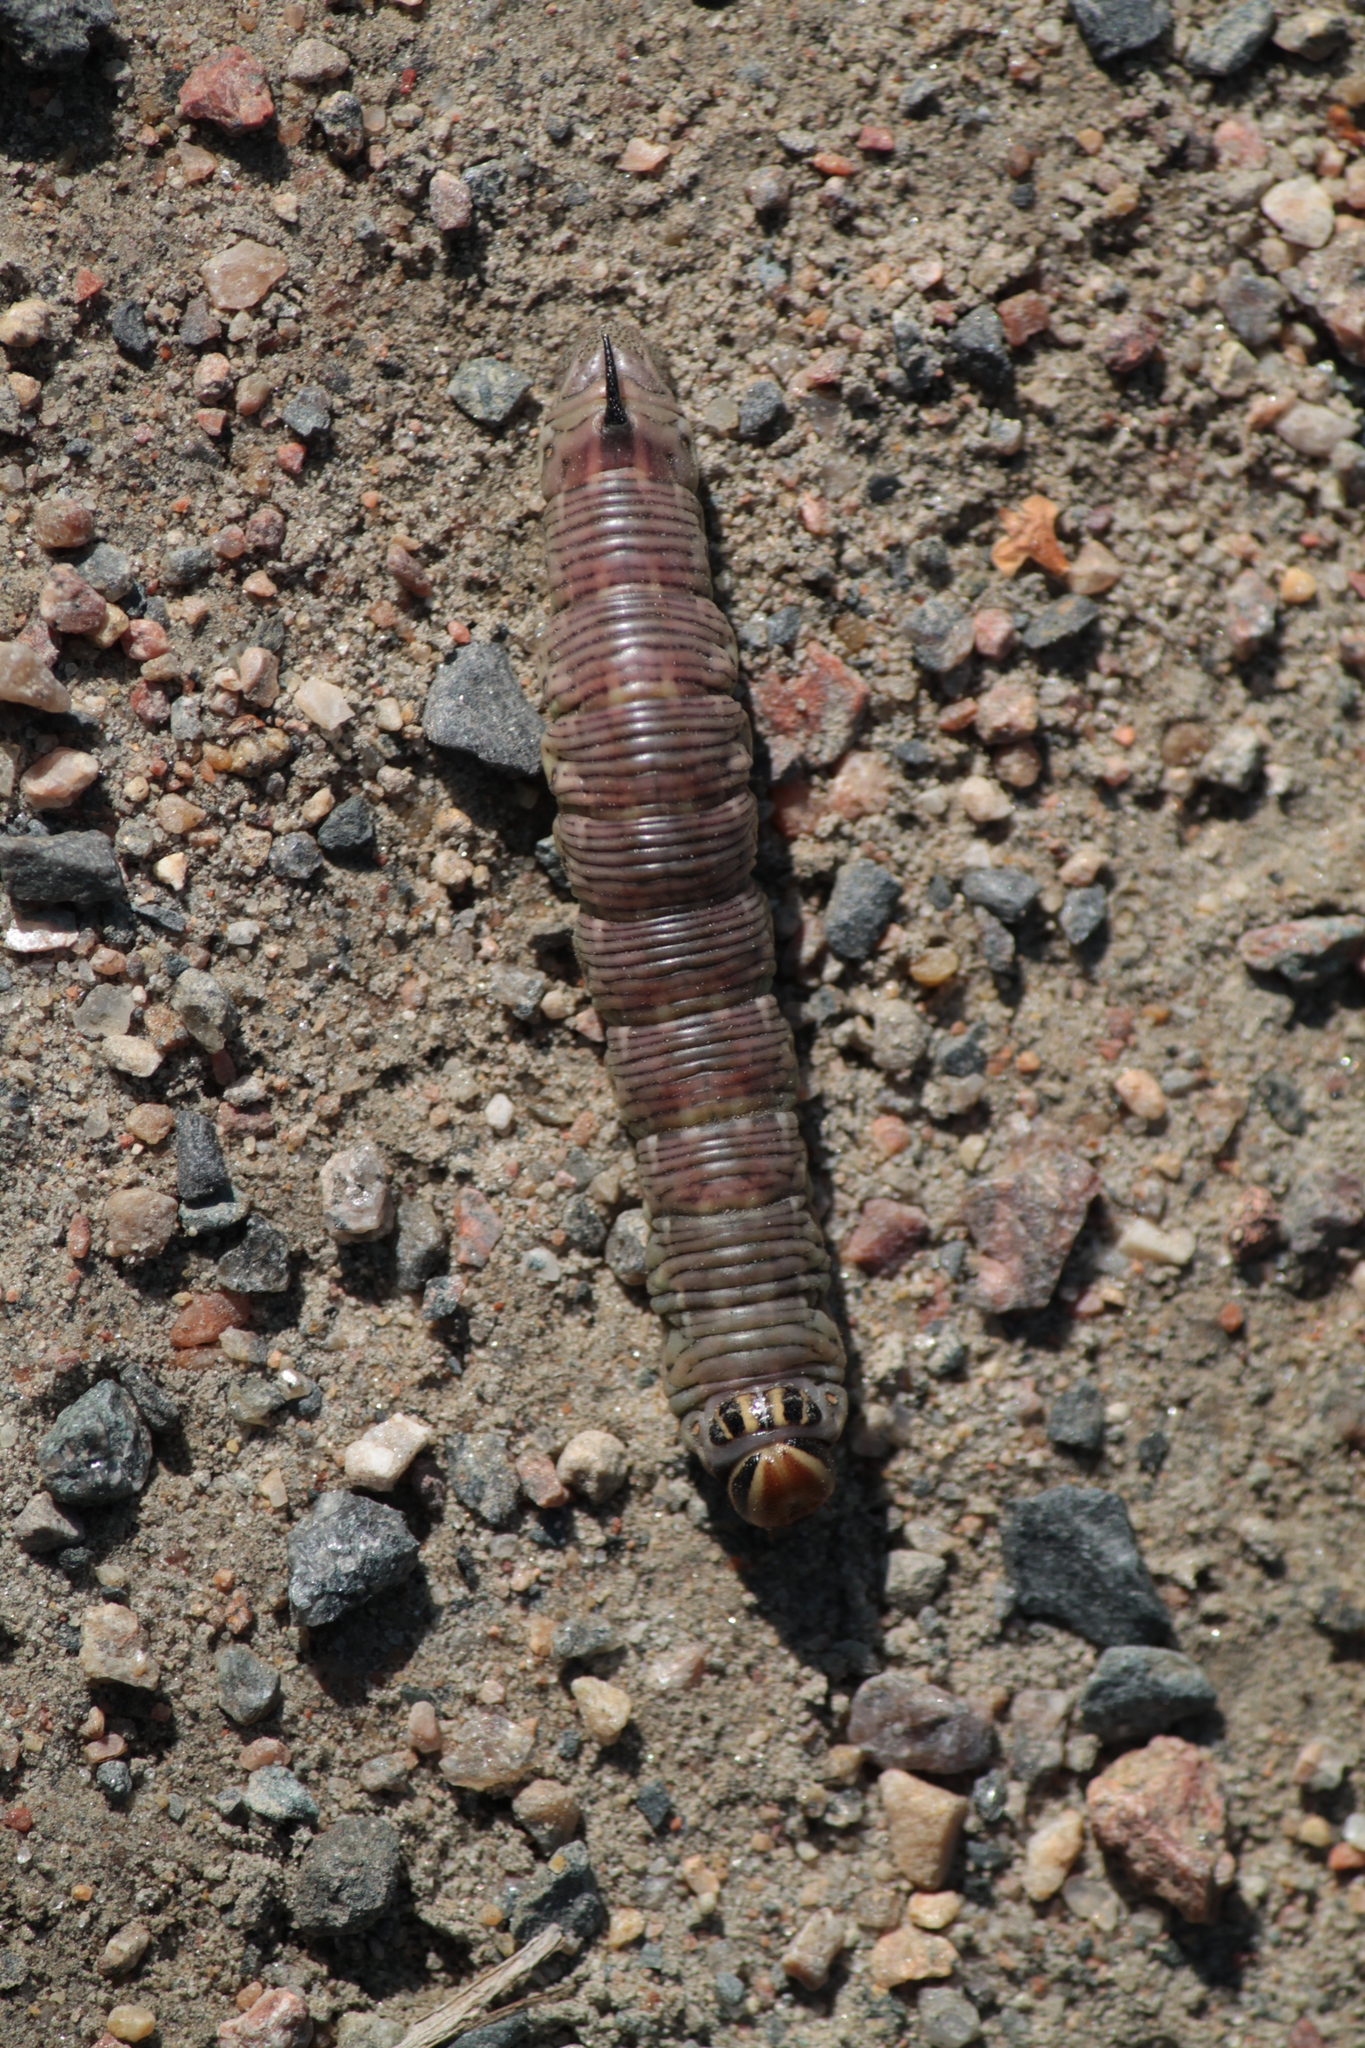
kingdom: Animalia
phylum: Arthropoda
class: Insecta
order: Lepidoptera
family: Sphingidae
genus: Sphinx
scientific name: Sphinx pinastri
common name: Pine hawk-moth
